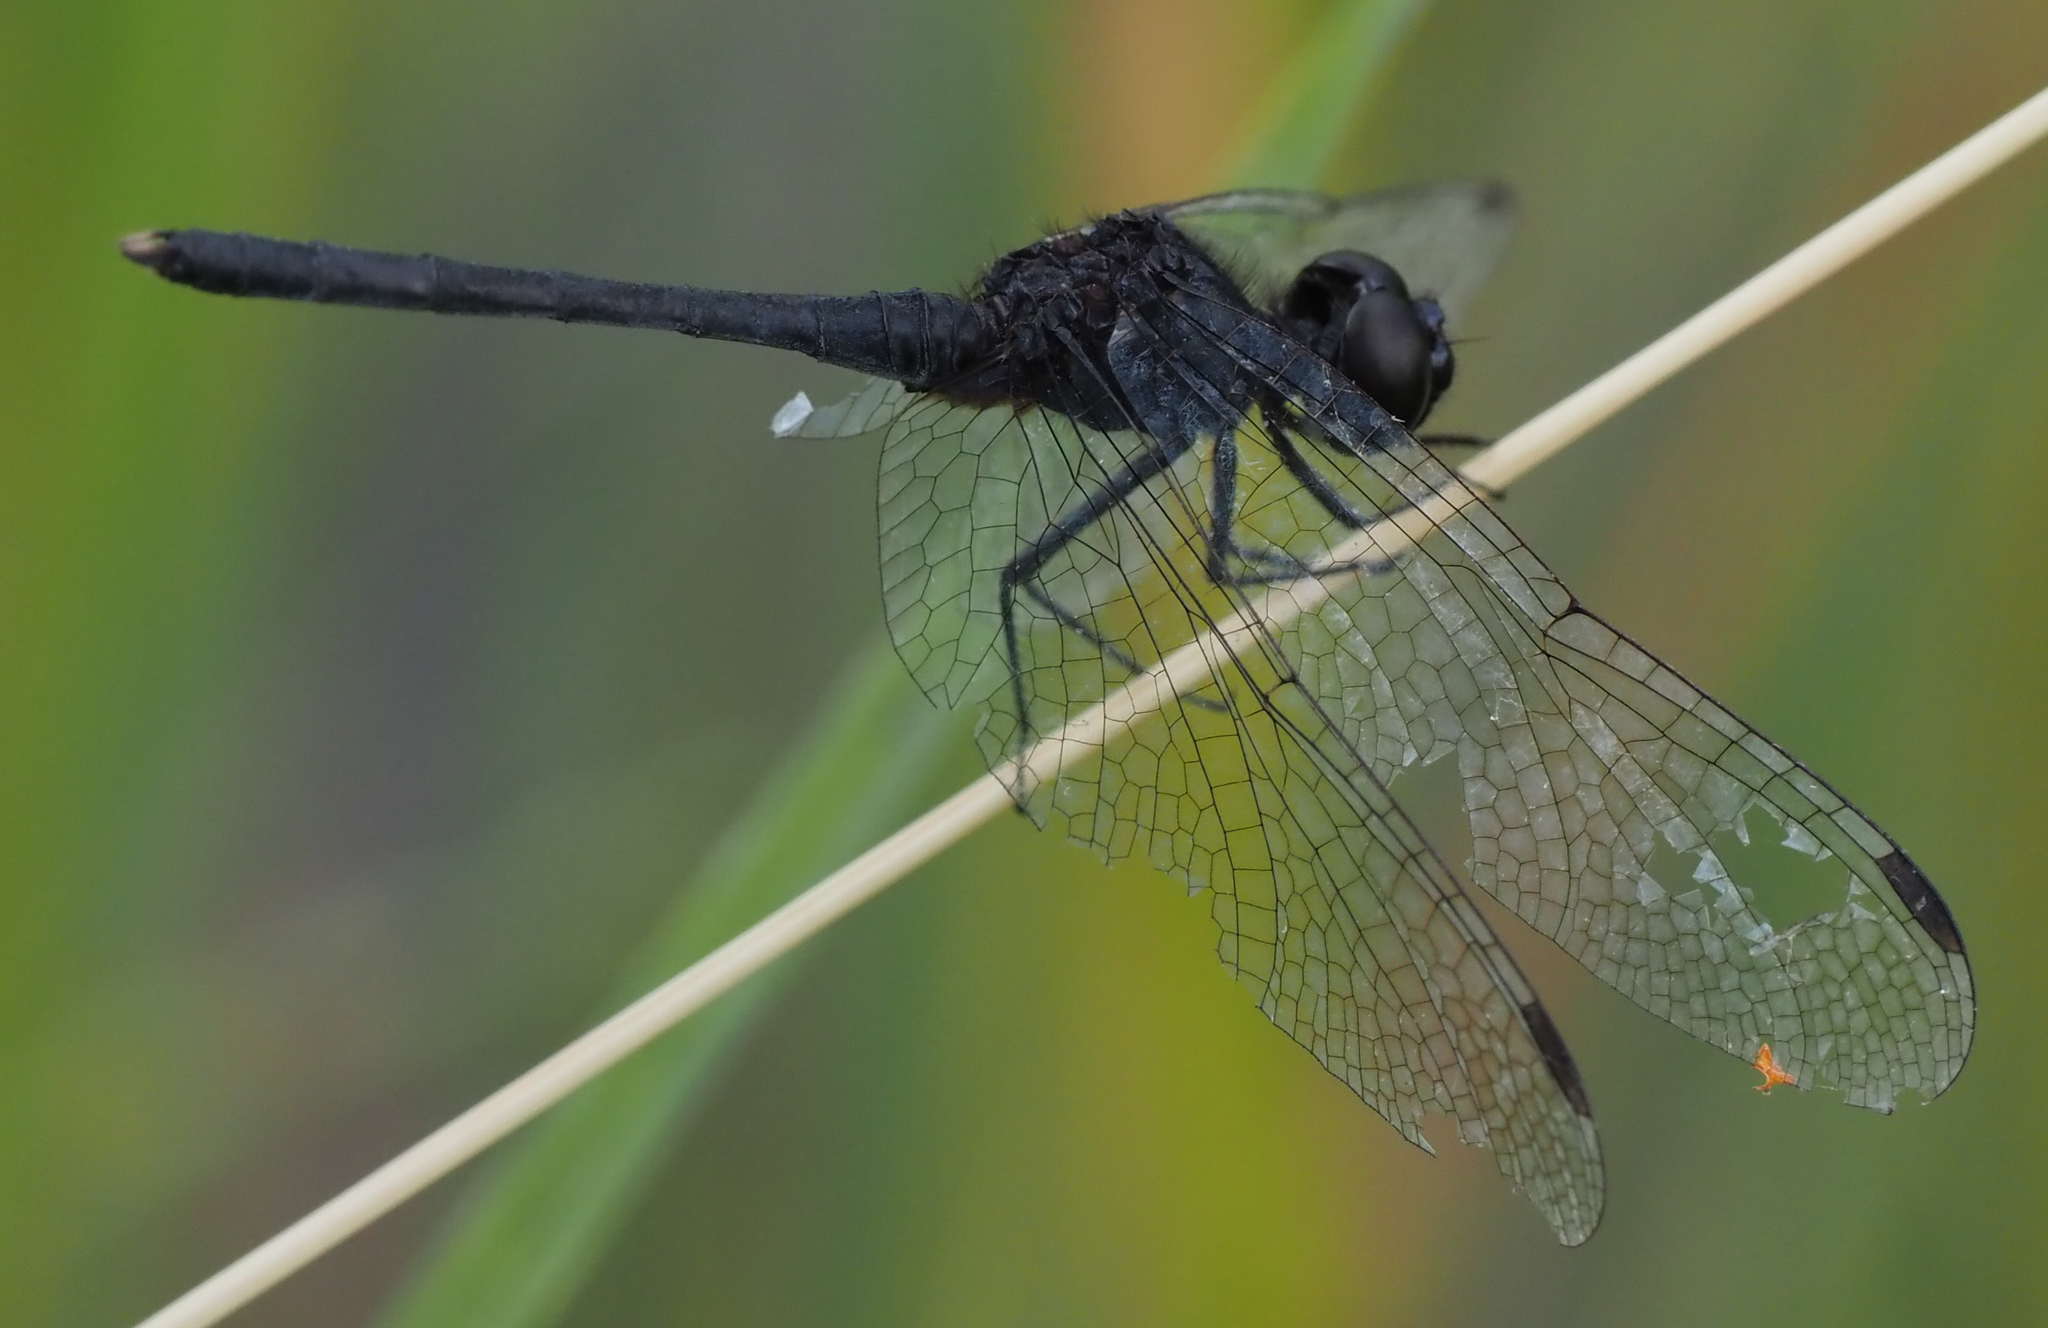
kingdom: Animalia
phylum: Arthropoda
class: Insecta
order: Odonata
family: Libellulidae
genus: Diplacodes
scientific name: Diplacodes lefebvrii
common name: Black percher
